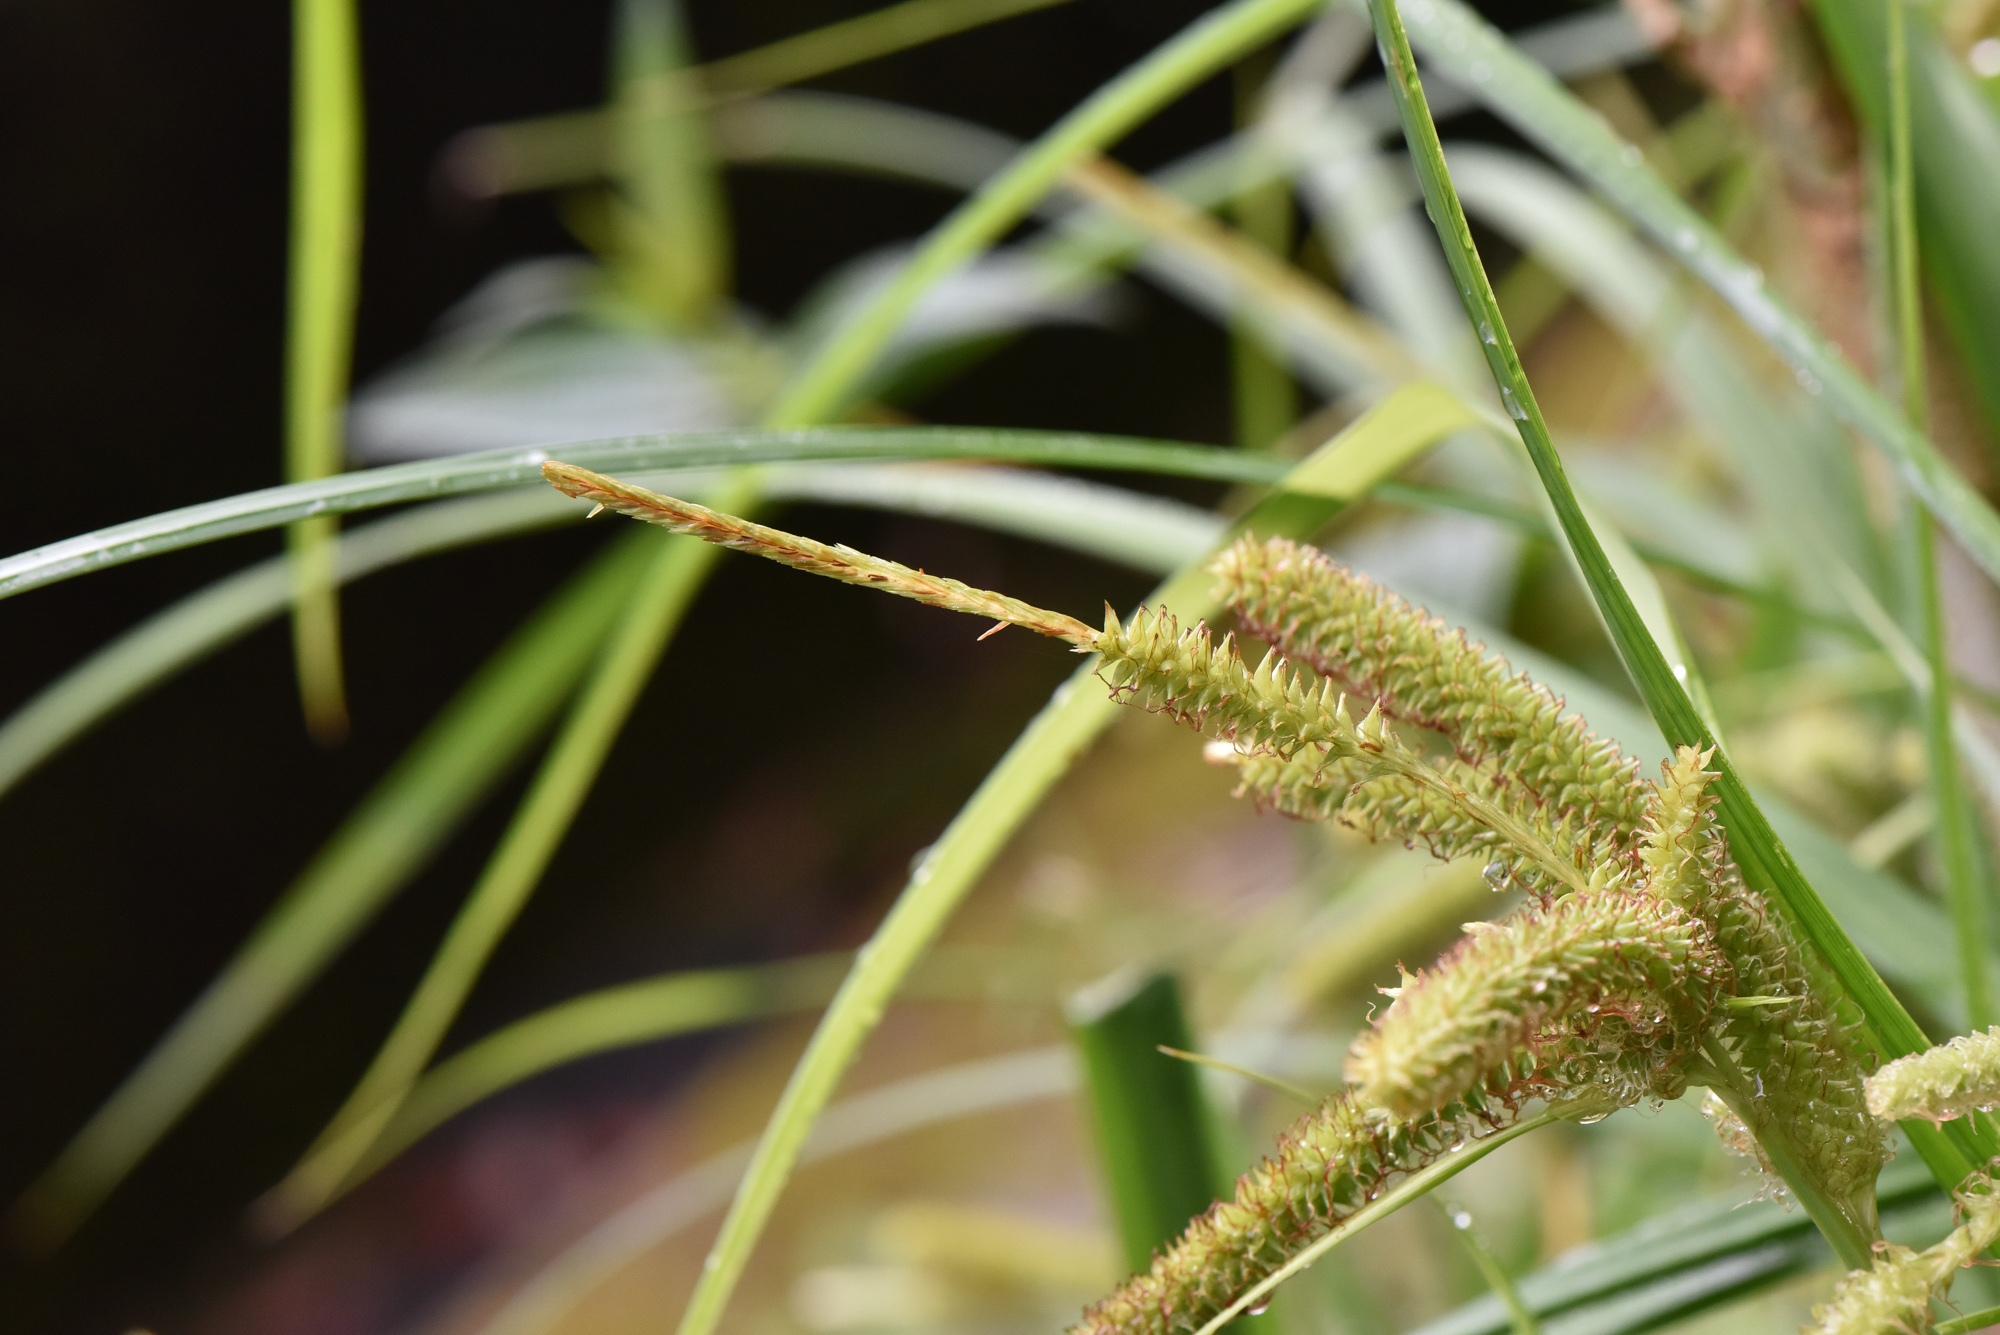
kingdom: Plantae
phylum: Tracheophyta
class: Liliopsida
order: Poales
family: Cyperaceae
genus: Carex
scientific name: Carex doniana
